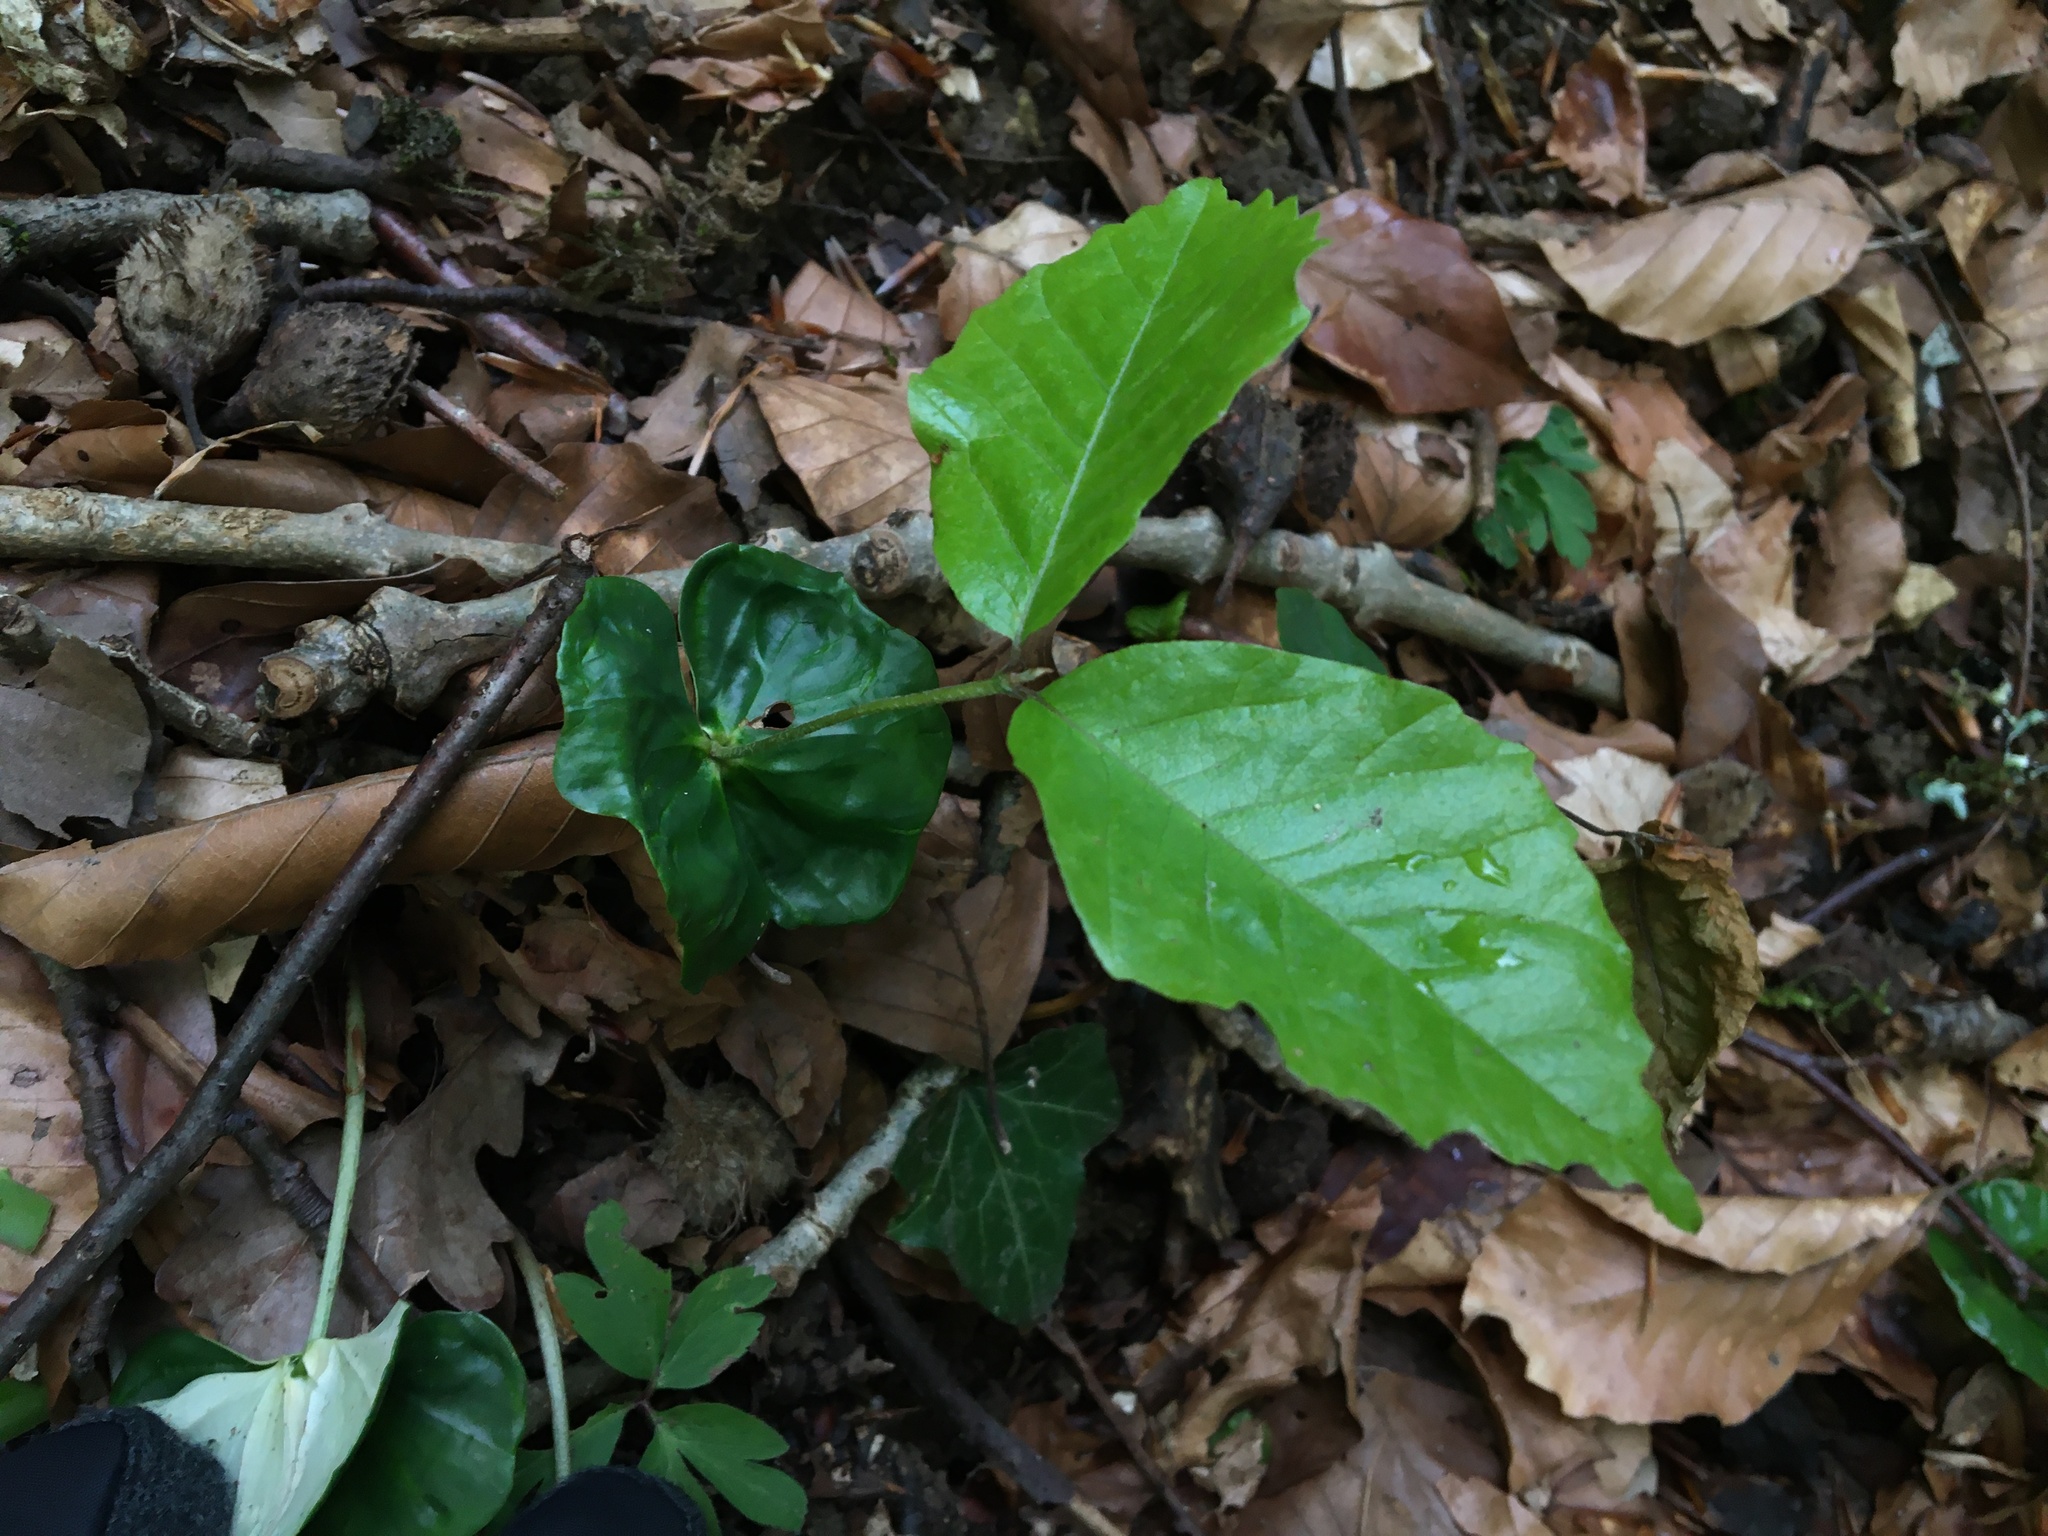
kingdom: Plantae
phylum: Tracheophyta
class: Magnoliopsida
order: Fagales
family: Fagaceae
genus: Fagus
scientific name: Fagus sylvatica
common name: Beech
